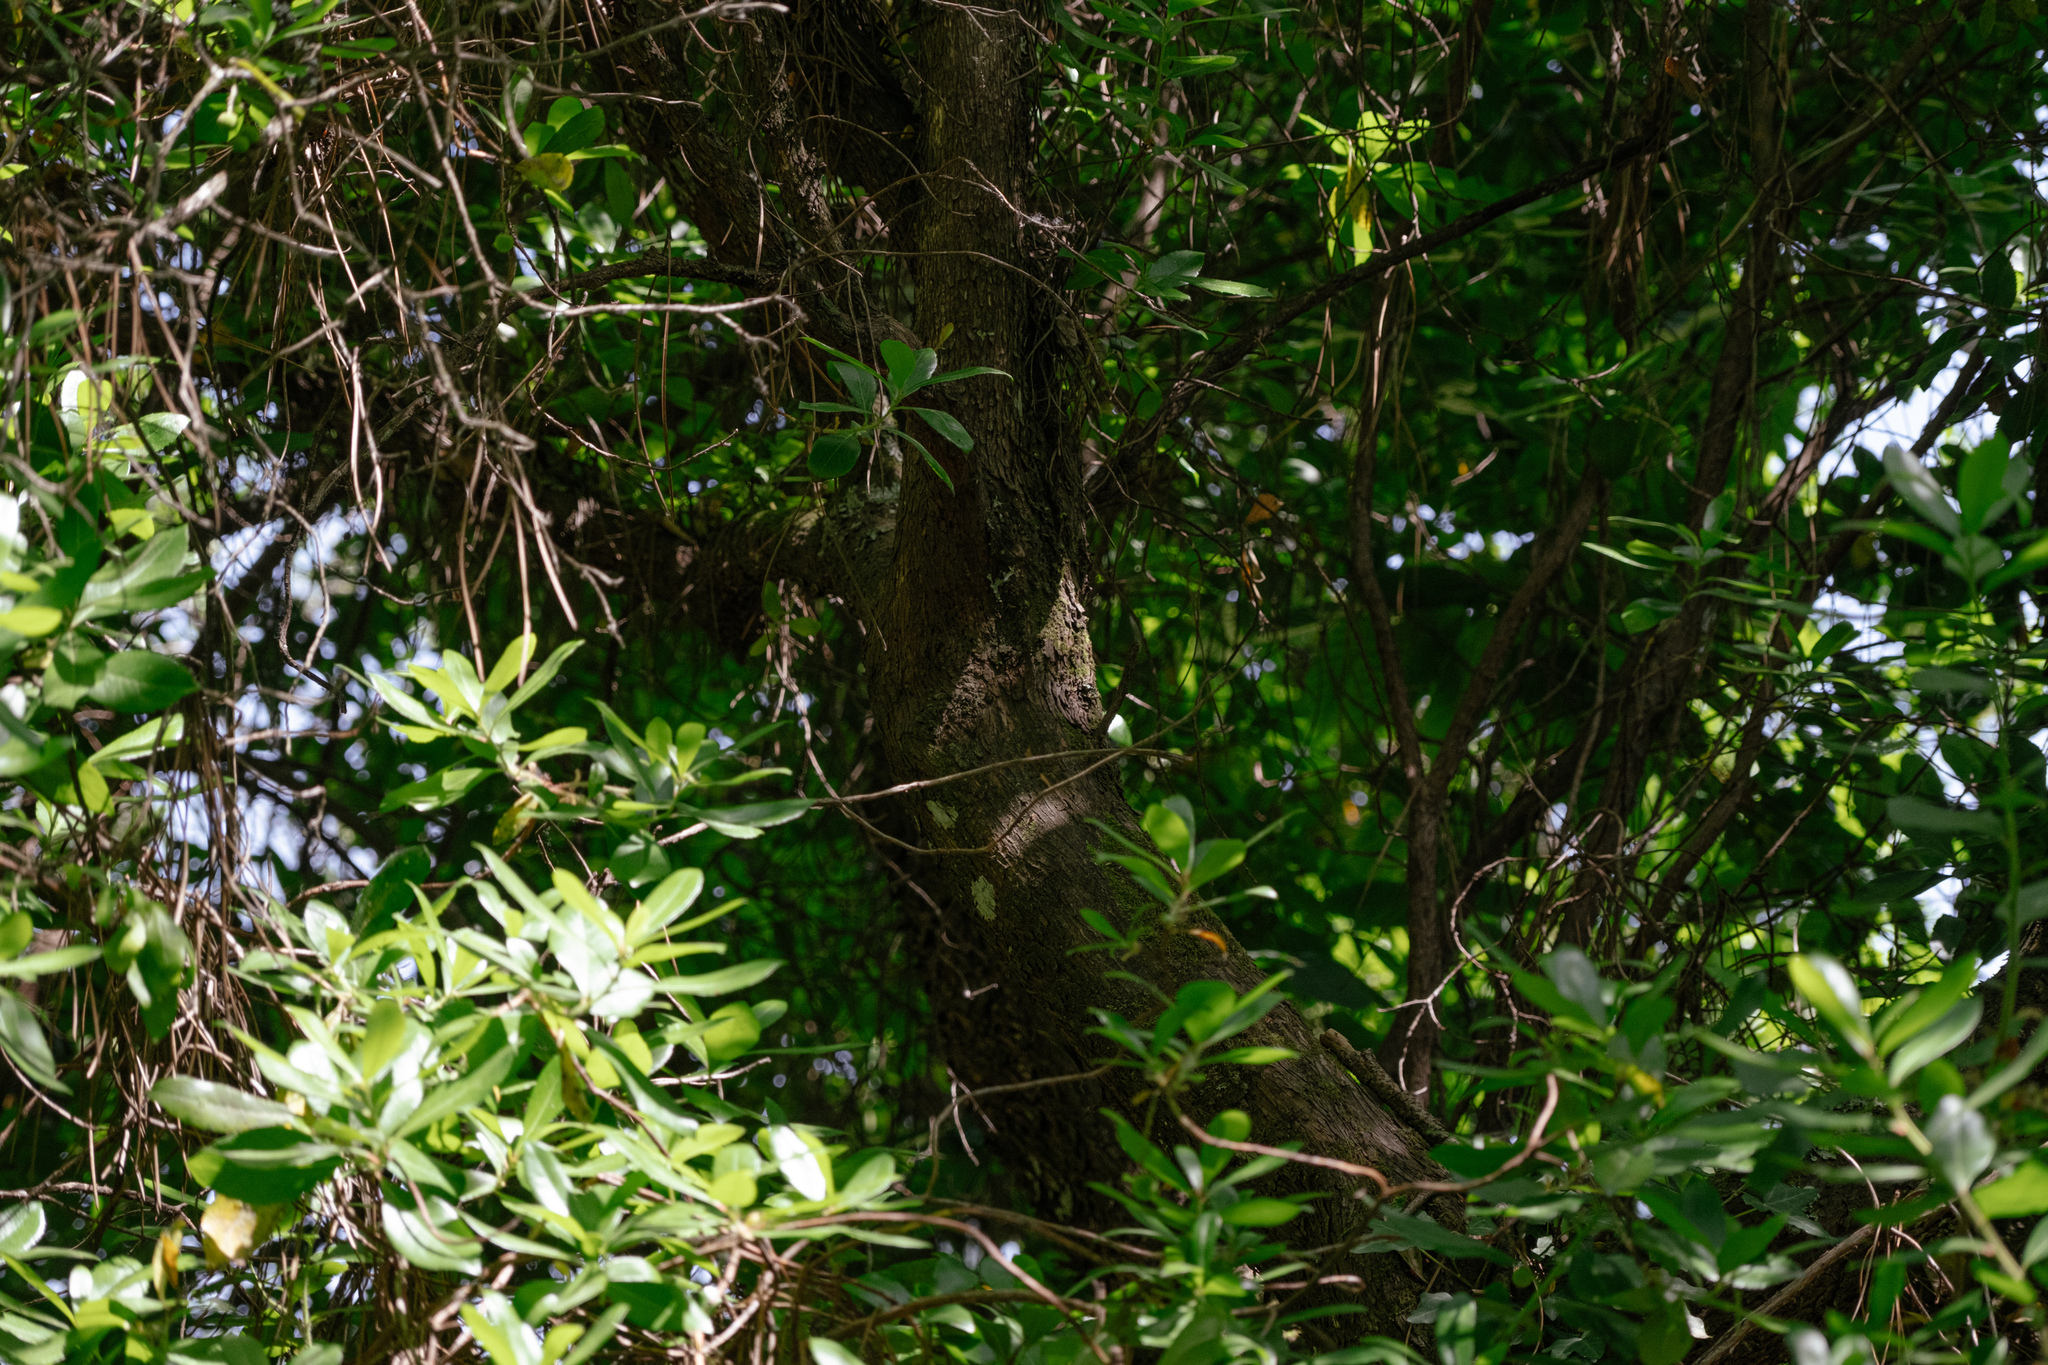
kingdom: Plantae
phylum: Tracheophyta
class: Magnoliopsida
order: Ericales
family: Ericaceae
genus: Arbutus
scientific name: Arbutus unedo
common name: Strawberry-tree
